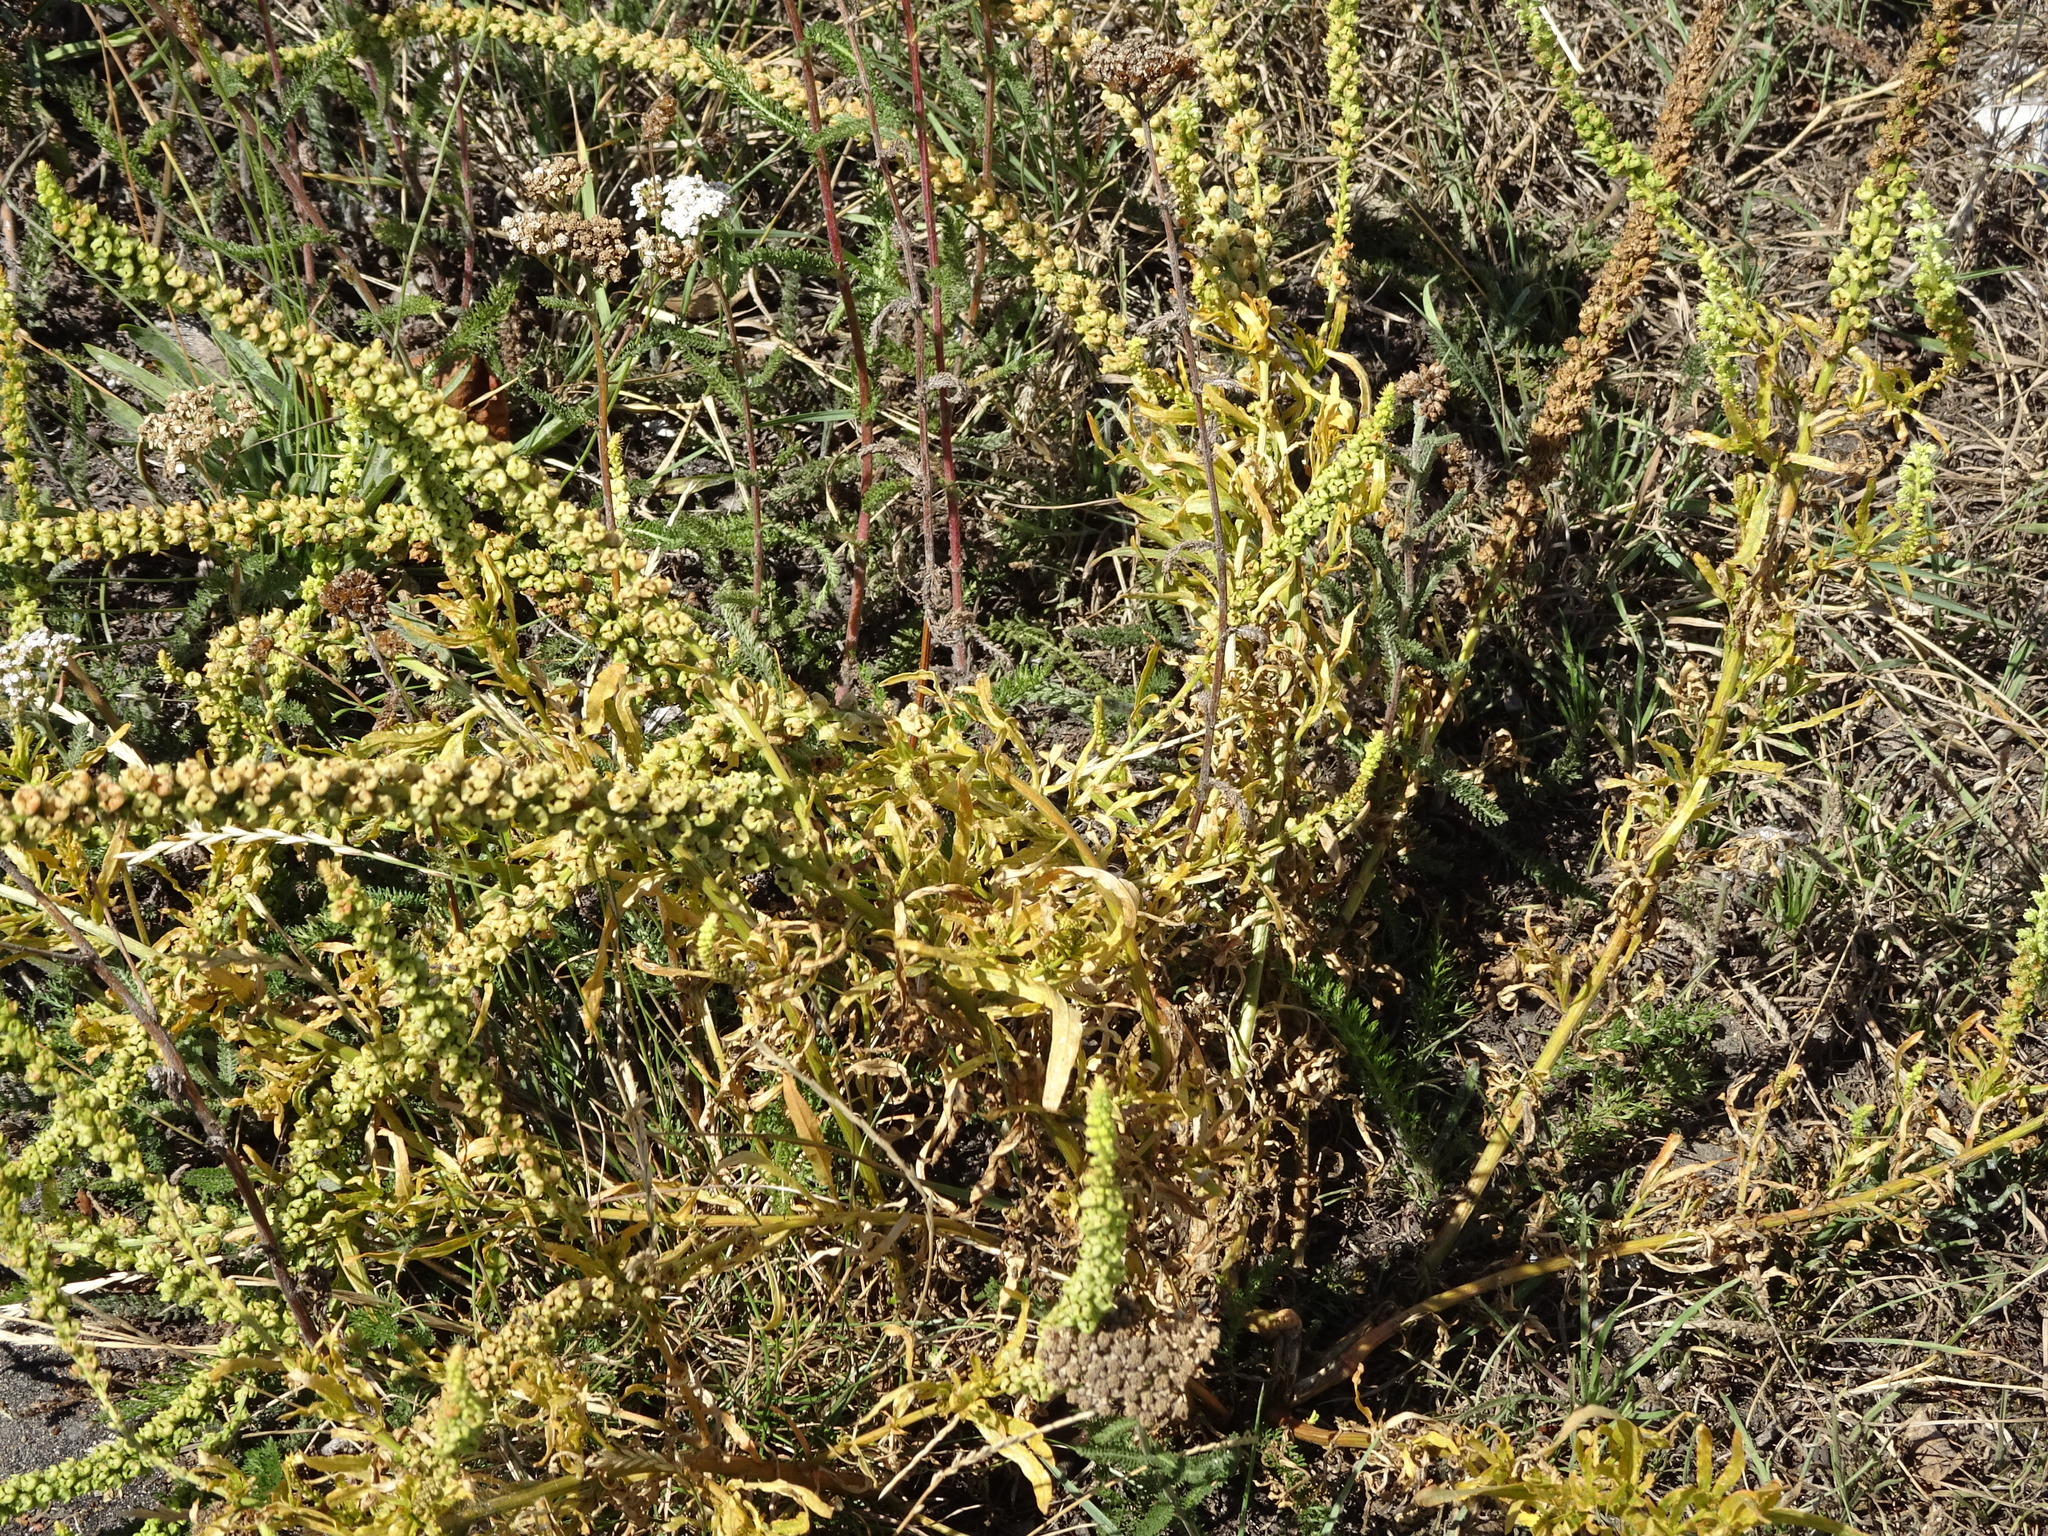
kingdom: Plantae
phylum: Tracheophyta
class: Magnoliopsida
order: Brassicales
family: Resedaceae
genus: Reseda
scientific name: Reseda luteola
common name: Weld
